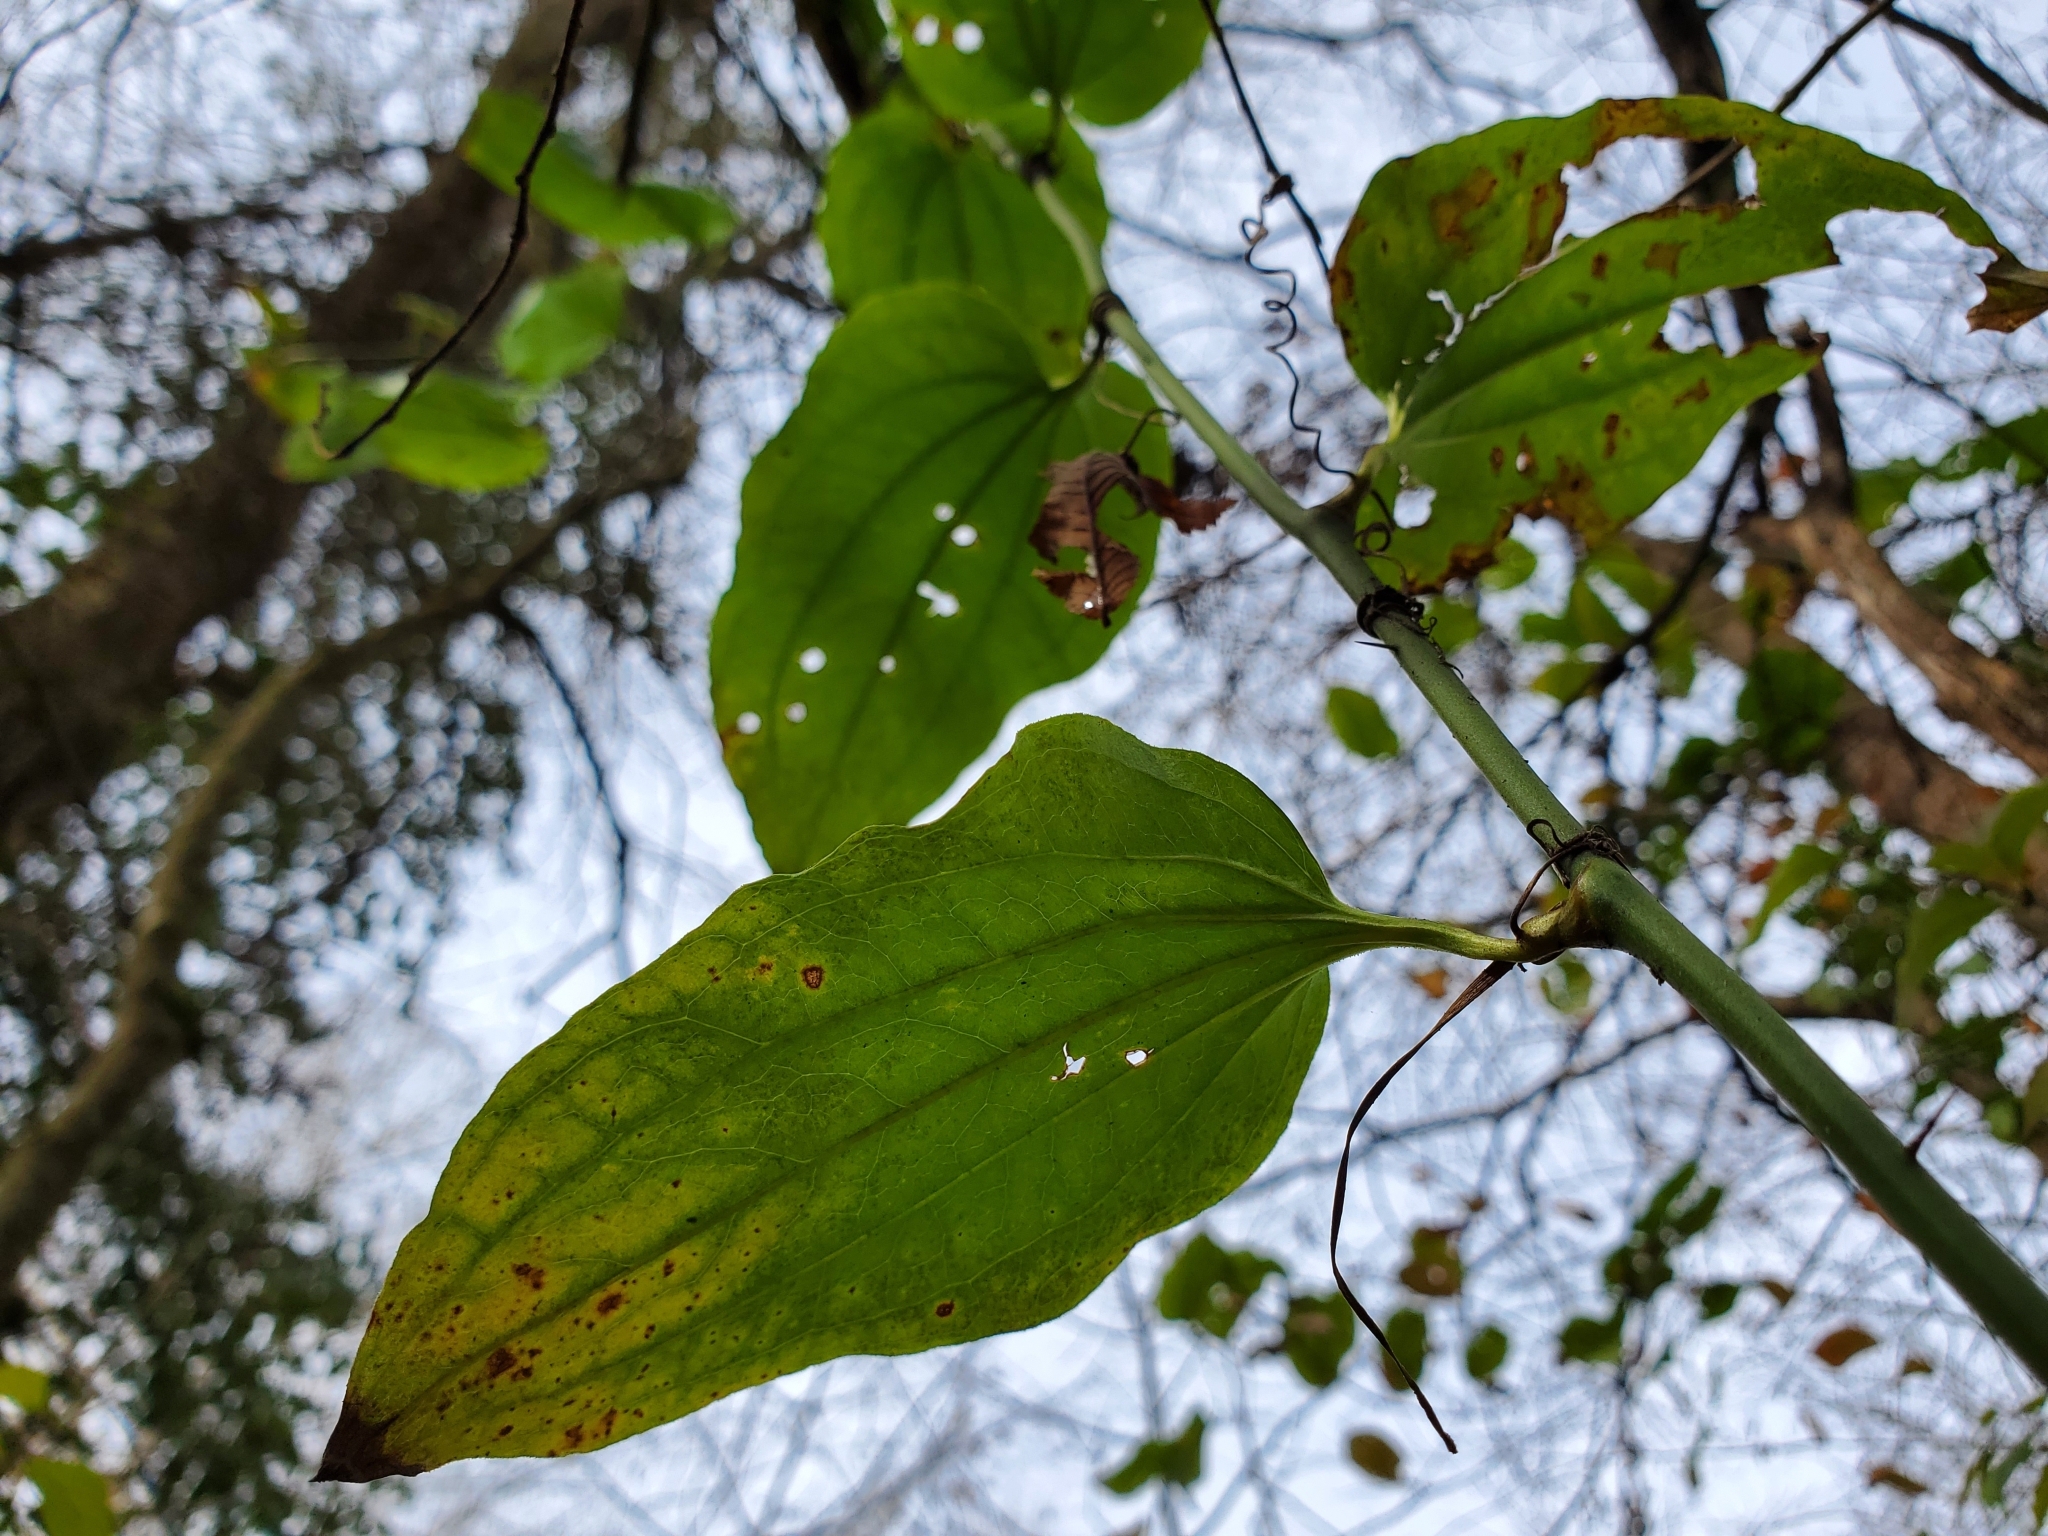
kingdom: Plantae
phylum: Tracheophyta
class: Liliopsida
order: Liliales
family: Smilacaceae
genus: Smilax
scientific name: Smilax tamnoides
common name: Hellfetter
